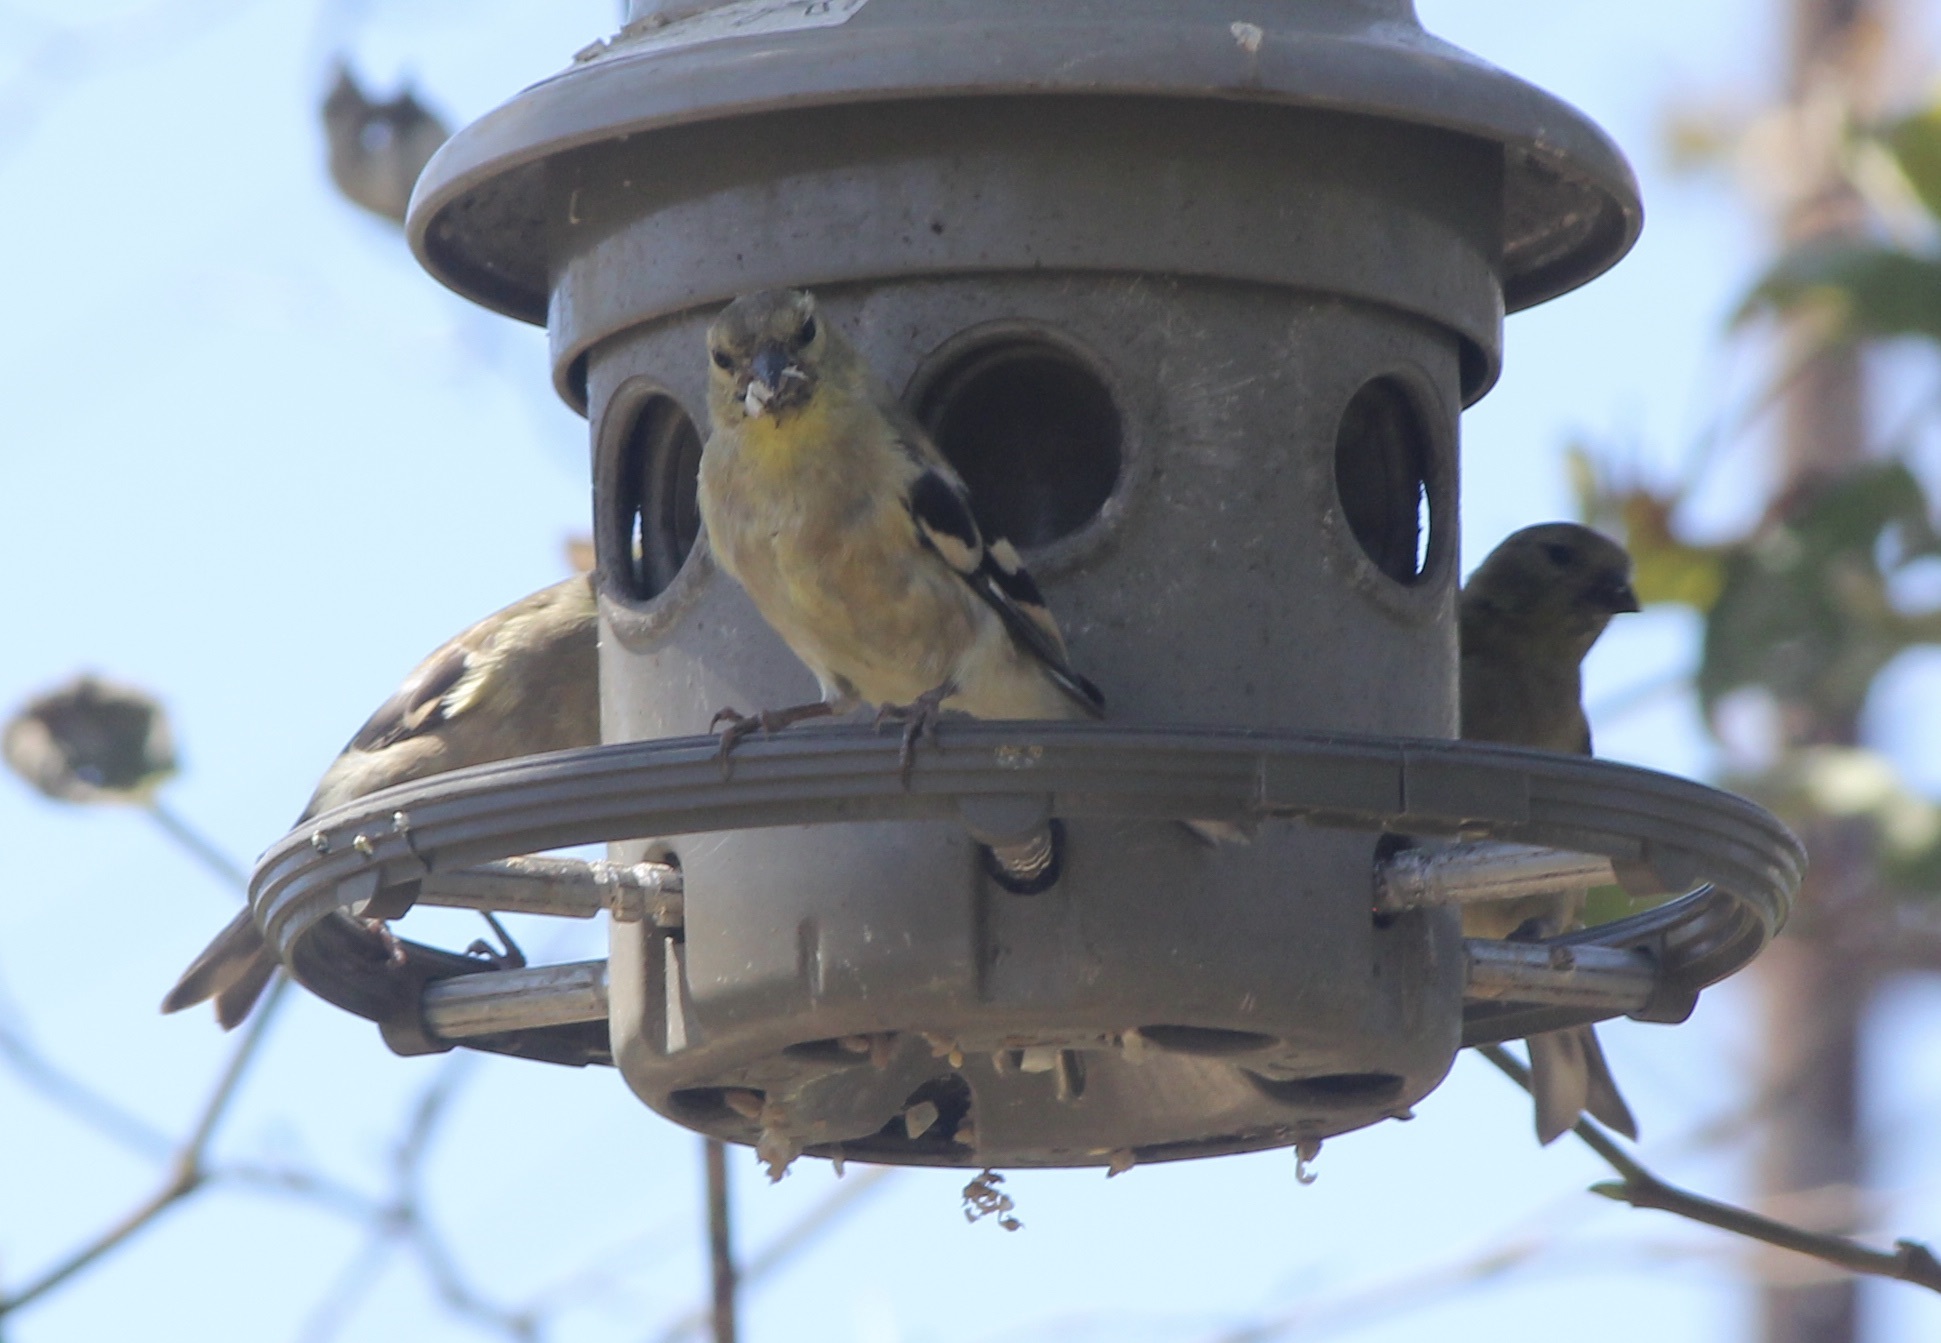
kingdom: Animalia
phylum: Chordata
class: Aves
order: Passeriformes
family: Fringillidae
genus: Spinus
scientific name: Spinus tristis
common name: American goldfinch
